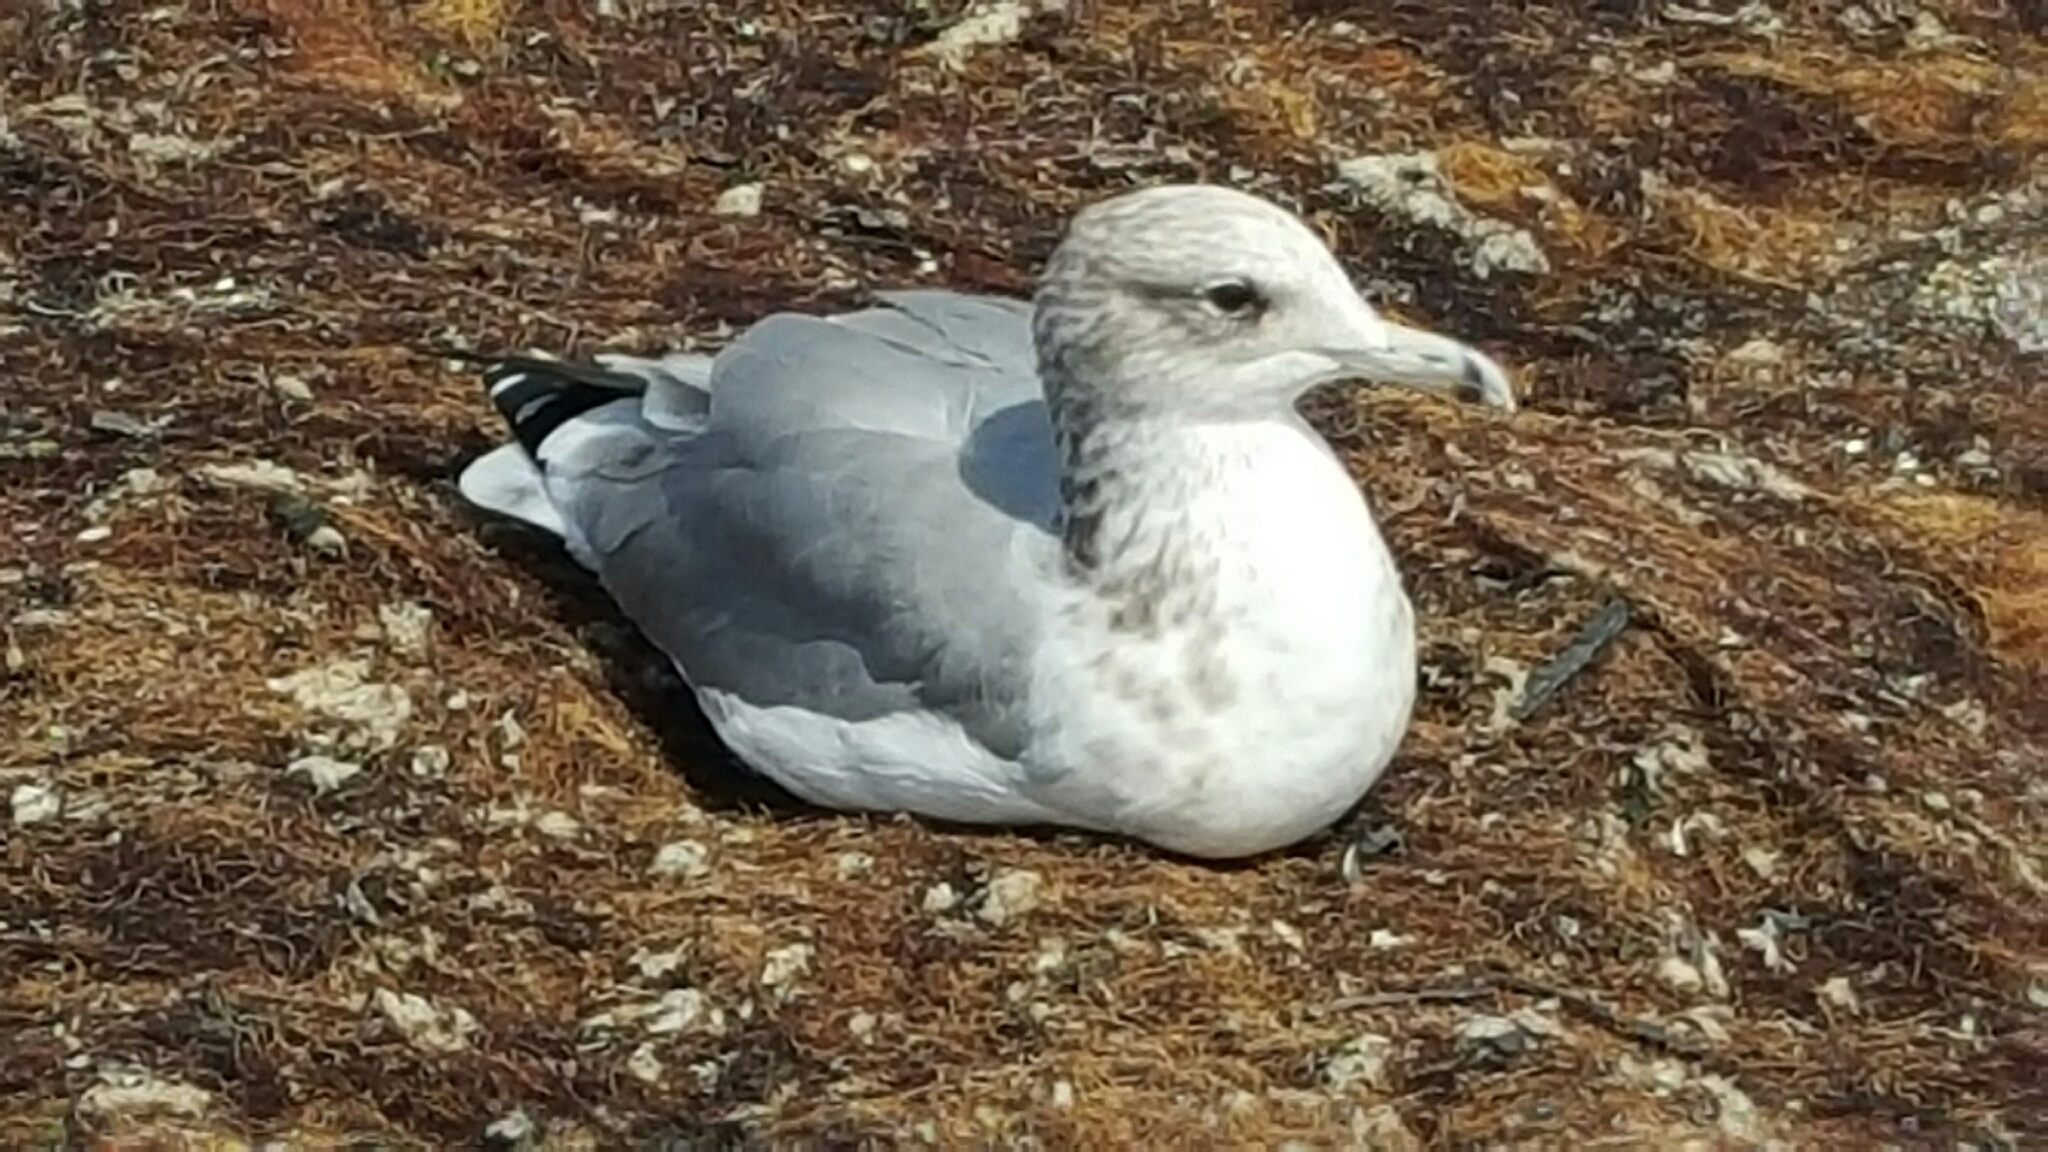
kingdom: Animalia
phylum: Chordata
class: Aves
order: Charadriiformes
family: Laridae
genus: Larus
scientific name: Larus californicus
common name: California gull
